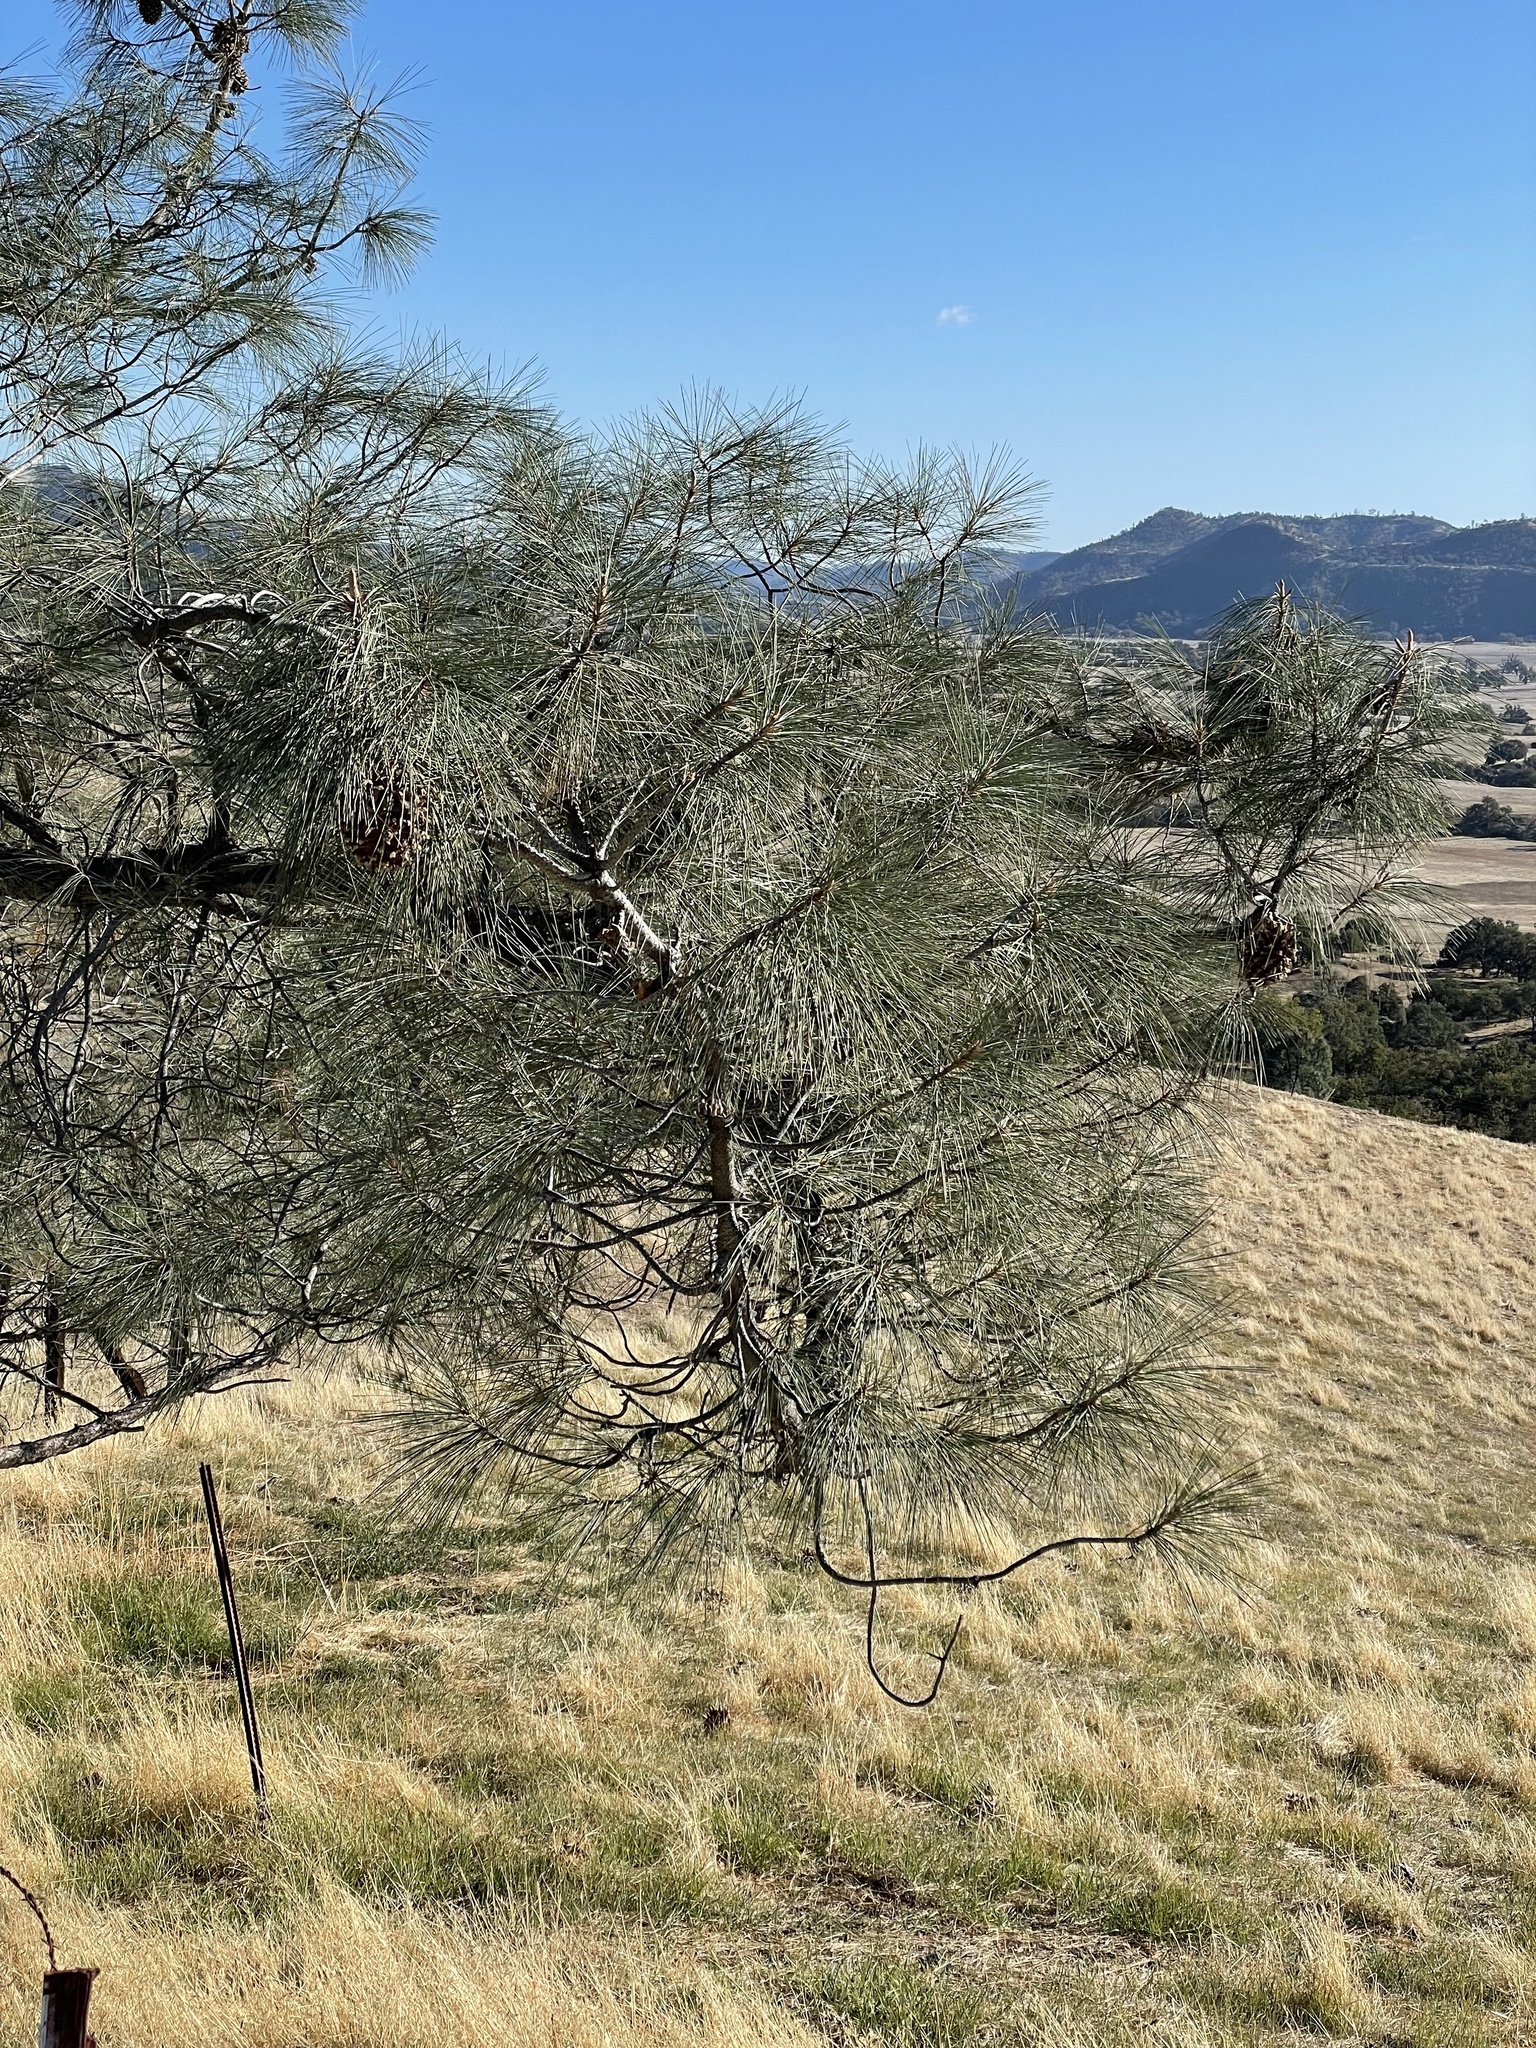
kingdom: Plantae
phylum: Tracheophyta
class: Pinopsida
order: Pinales
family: Pinaceae
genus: Pinus
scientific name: Pinus sabiniana
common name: Bull pine
